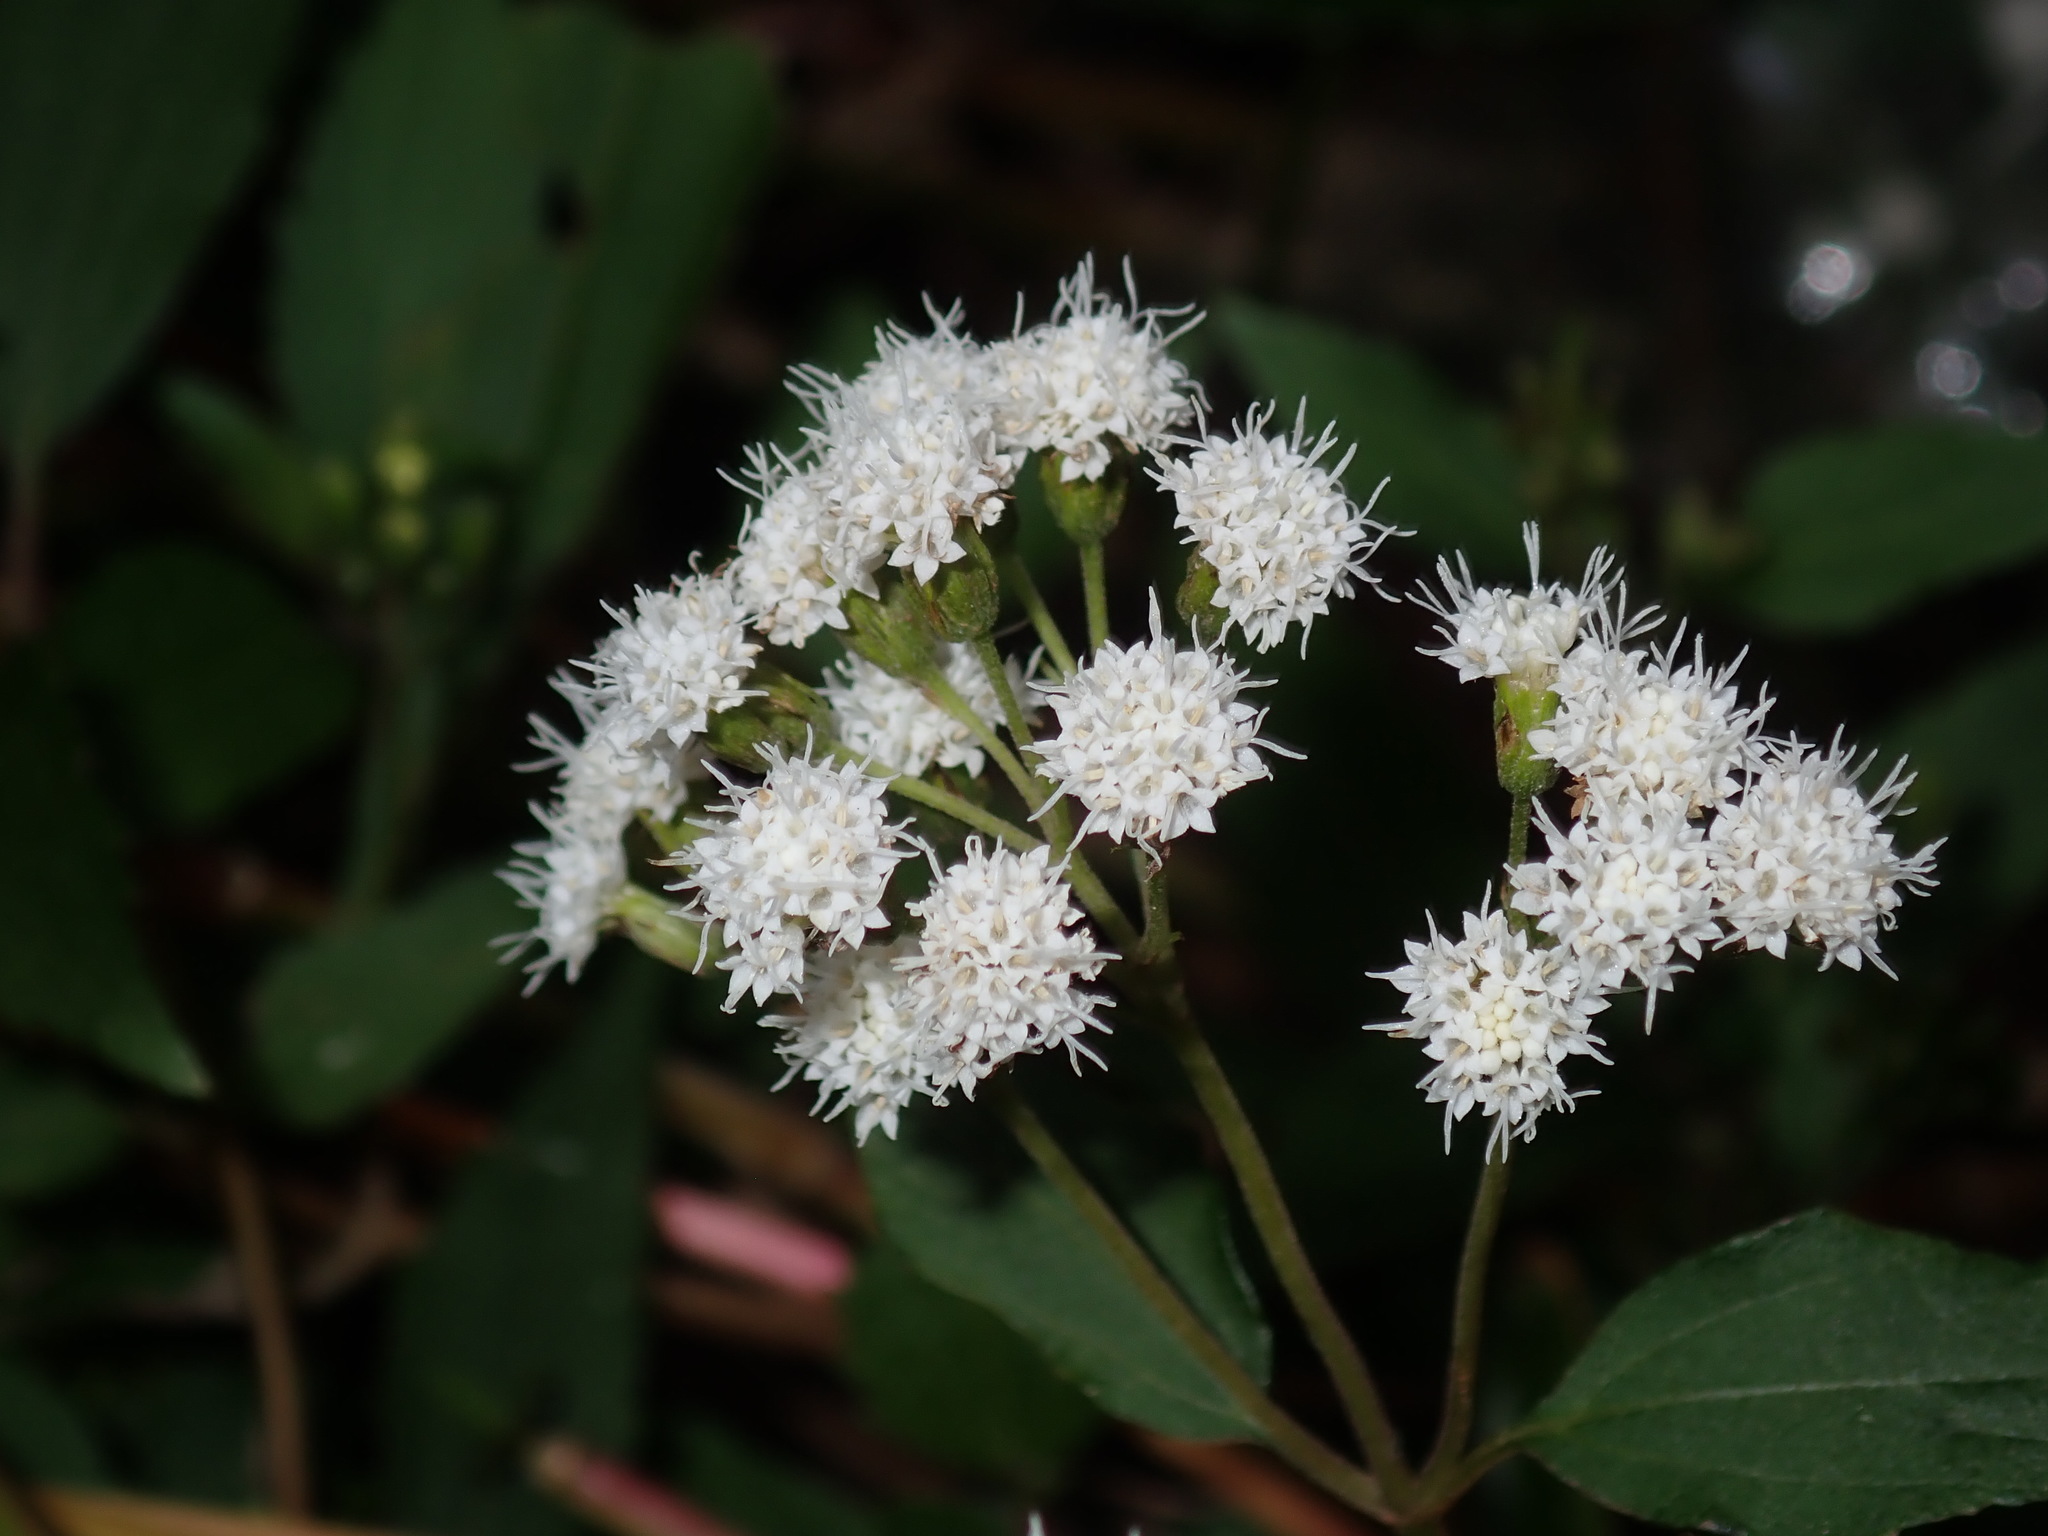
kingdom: Plantae
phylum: Tracheophyta
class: Magnoliopsida
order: Asterales
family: Asteraceae
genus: Ageratina
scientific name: Ageratina adenophora
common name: Sticky snakeroot
